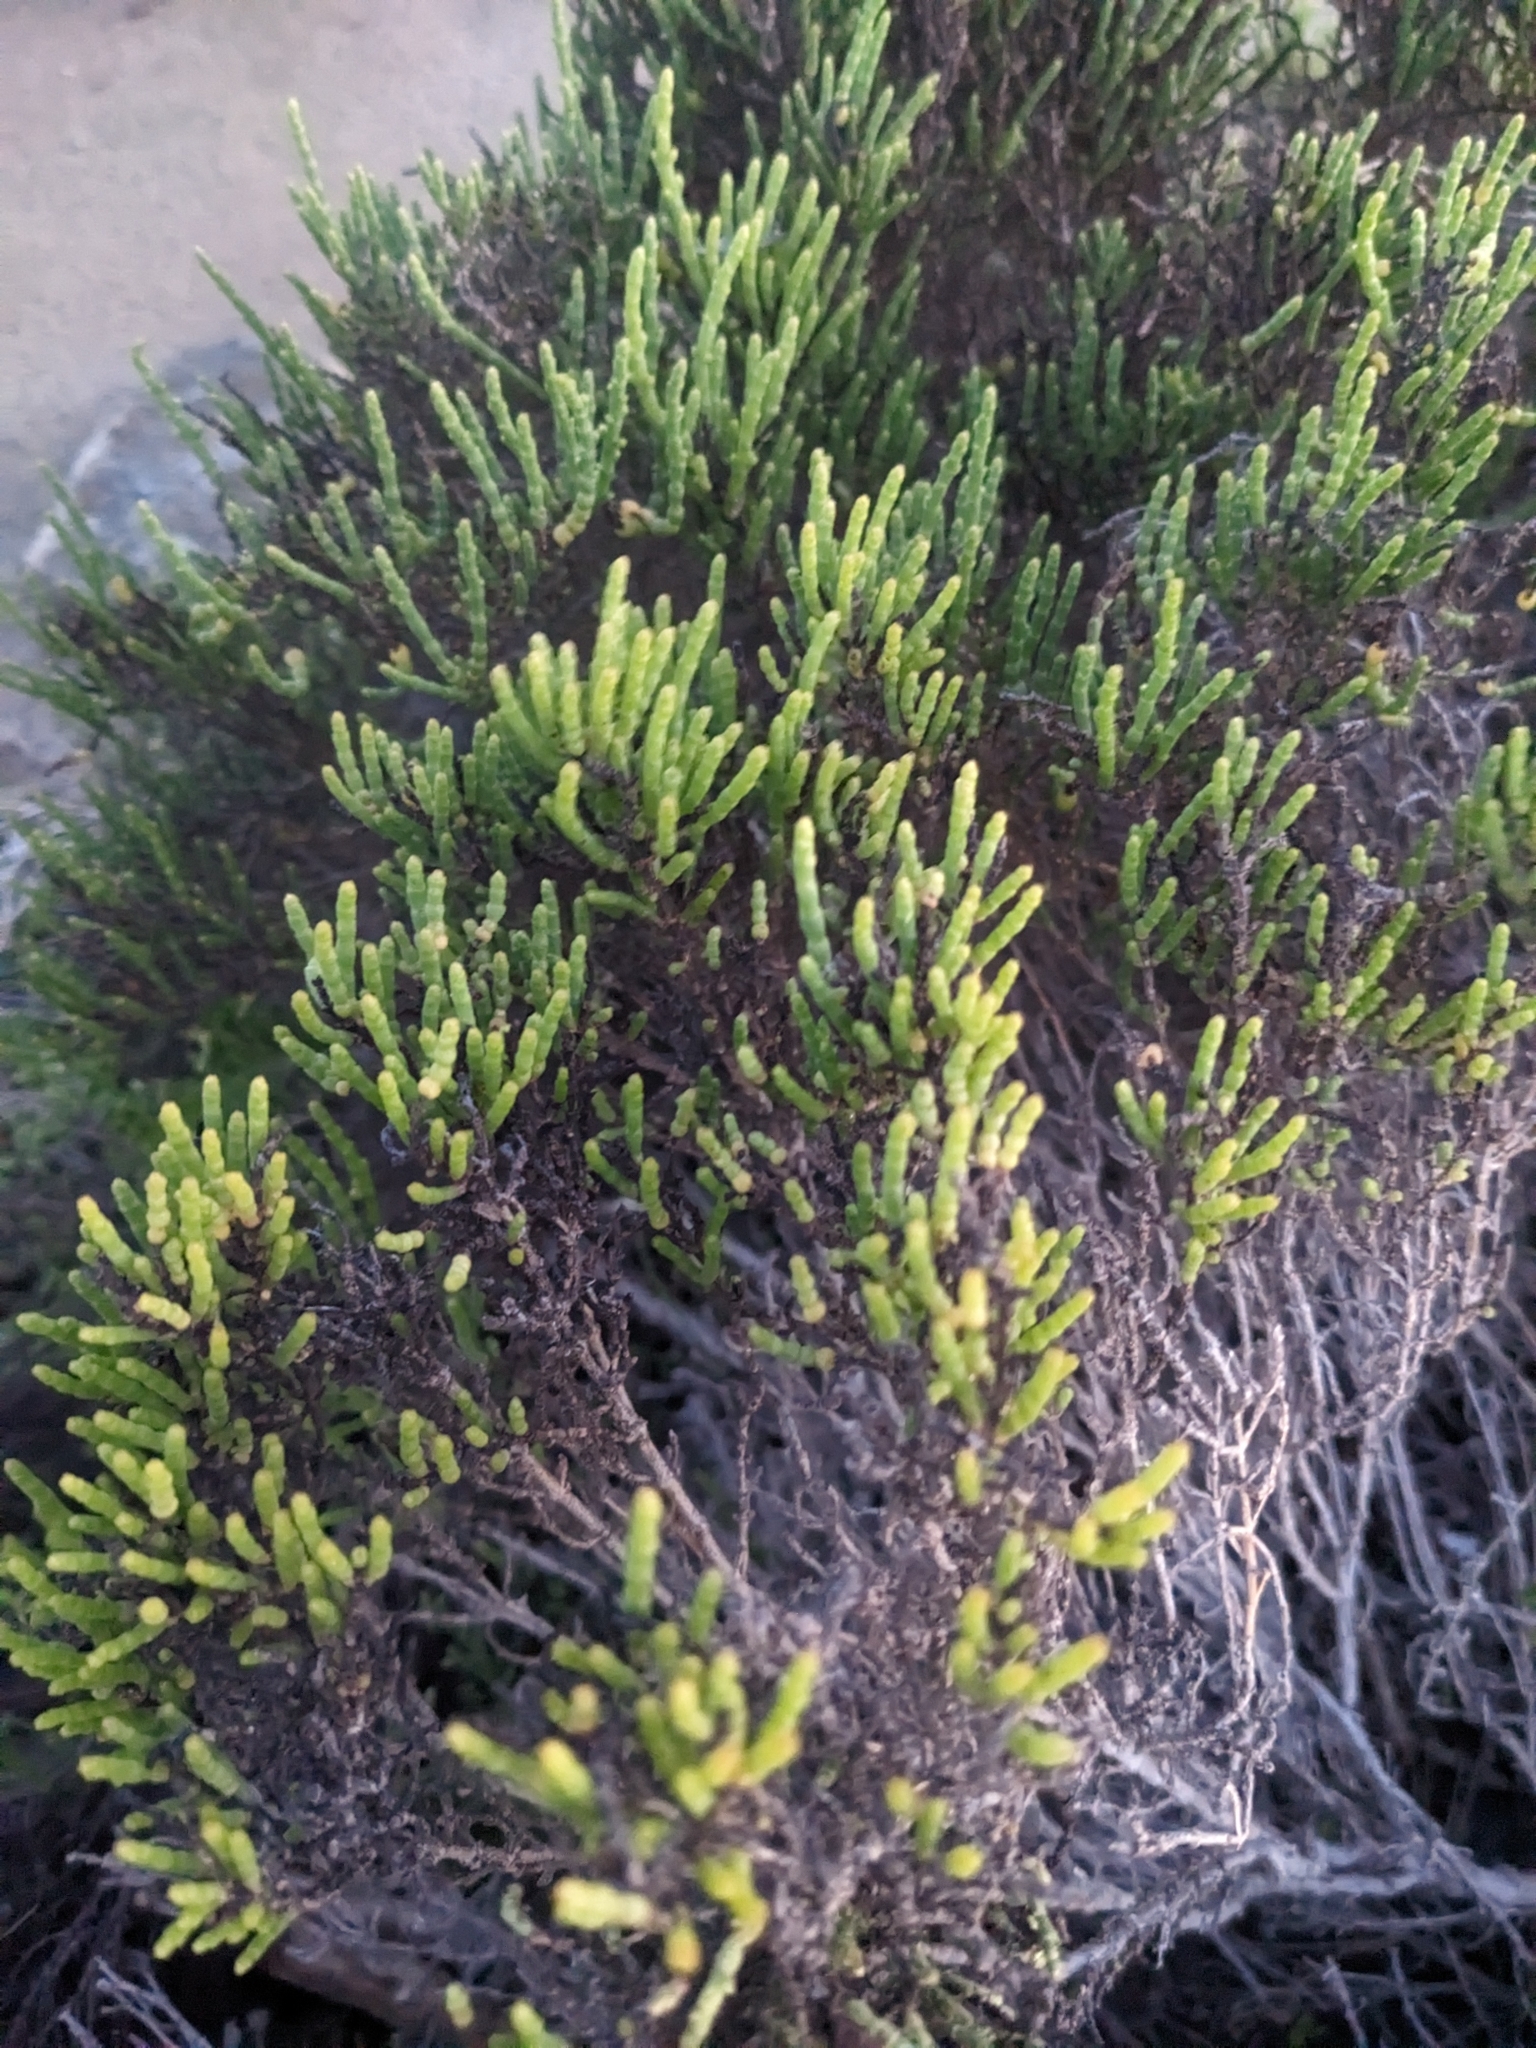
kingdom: Plantae
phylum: Tracheophyta
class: Magnoliopsida
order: Caryophyllales
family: Amaranthaceae
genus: Arthroceras
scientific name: Arthroceras subterminale
